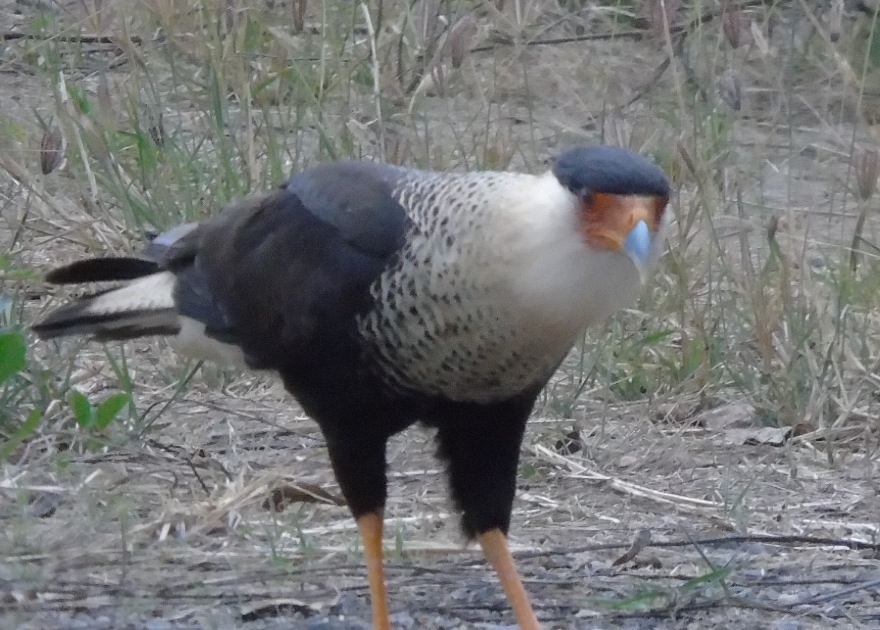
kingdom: Animalia
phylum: Chordata
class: Aves
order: Falconiformes
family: Falconidae
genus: Caracara
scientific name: Caracara plancus
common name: Southern caracara
